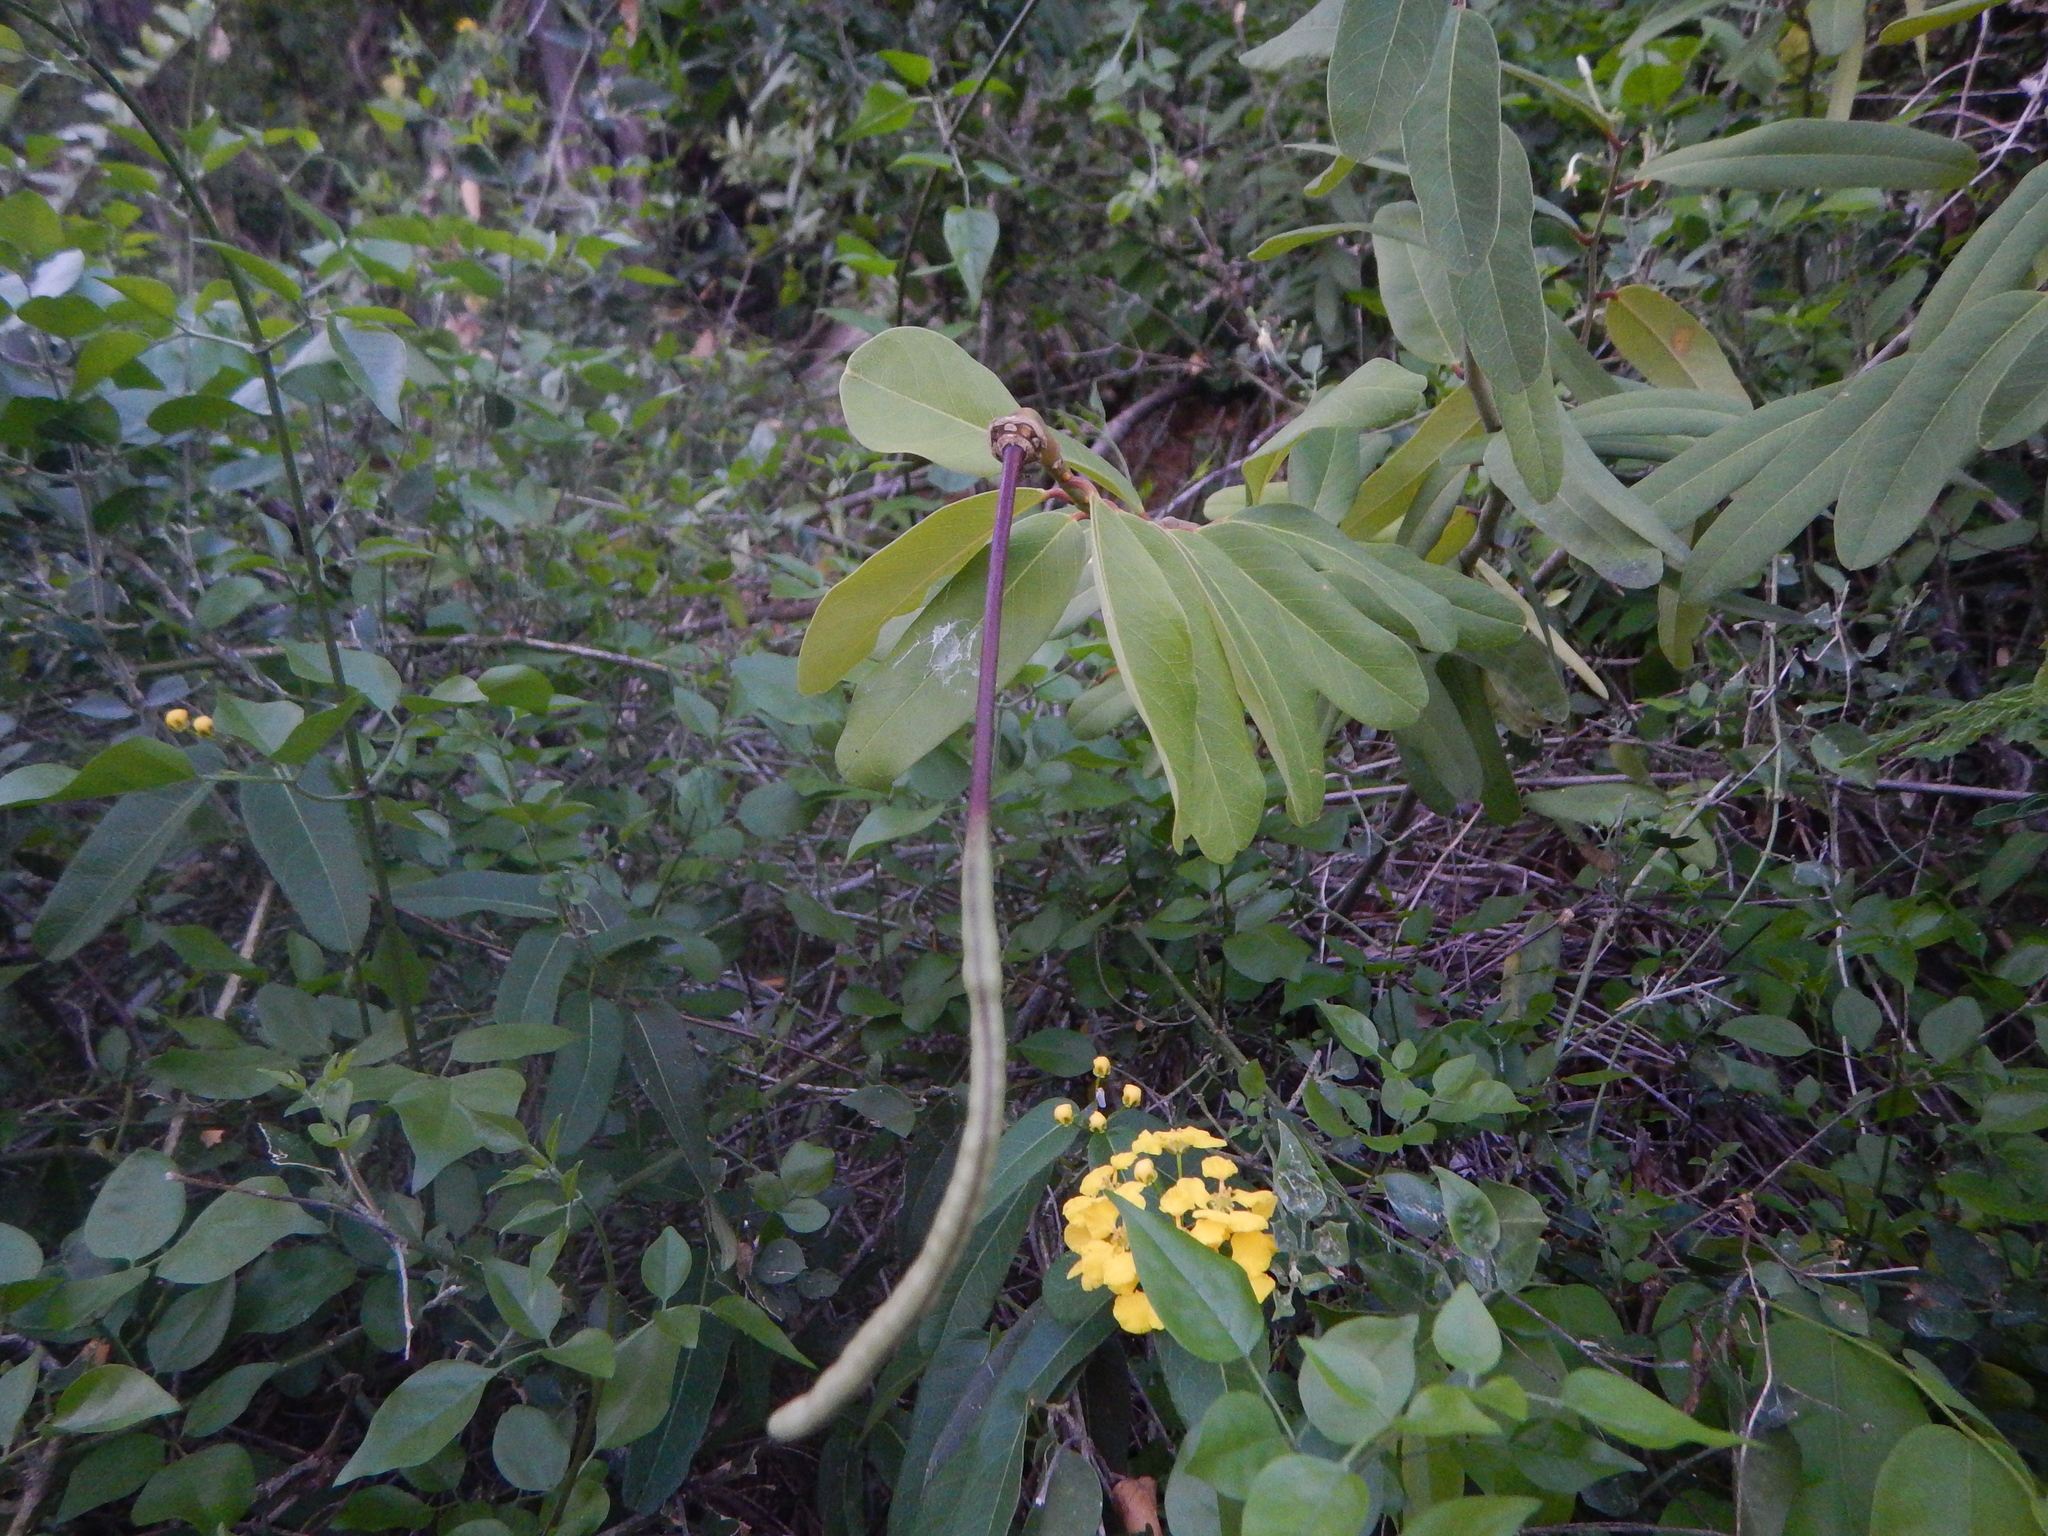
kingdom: Plantae
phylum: Tracheophyta
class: Magnoliopsida
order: Brassicales
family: Capparaceae
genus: Cynophalla
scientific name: Cynophalla flexuosa
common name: Capertree
